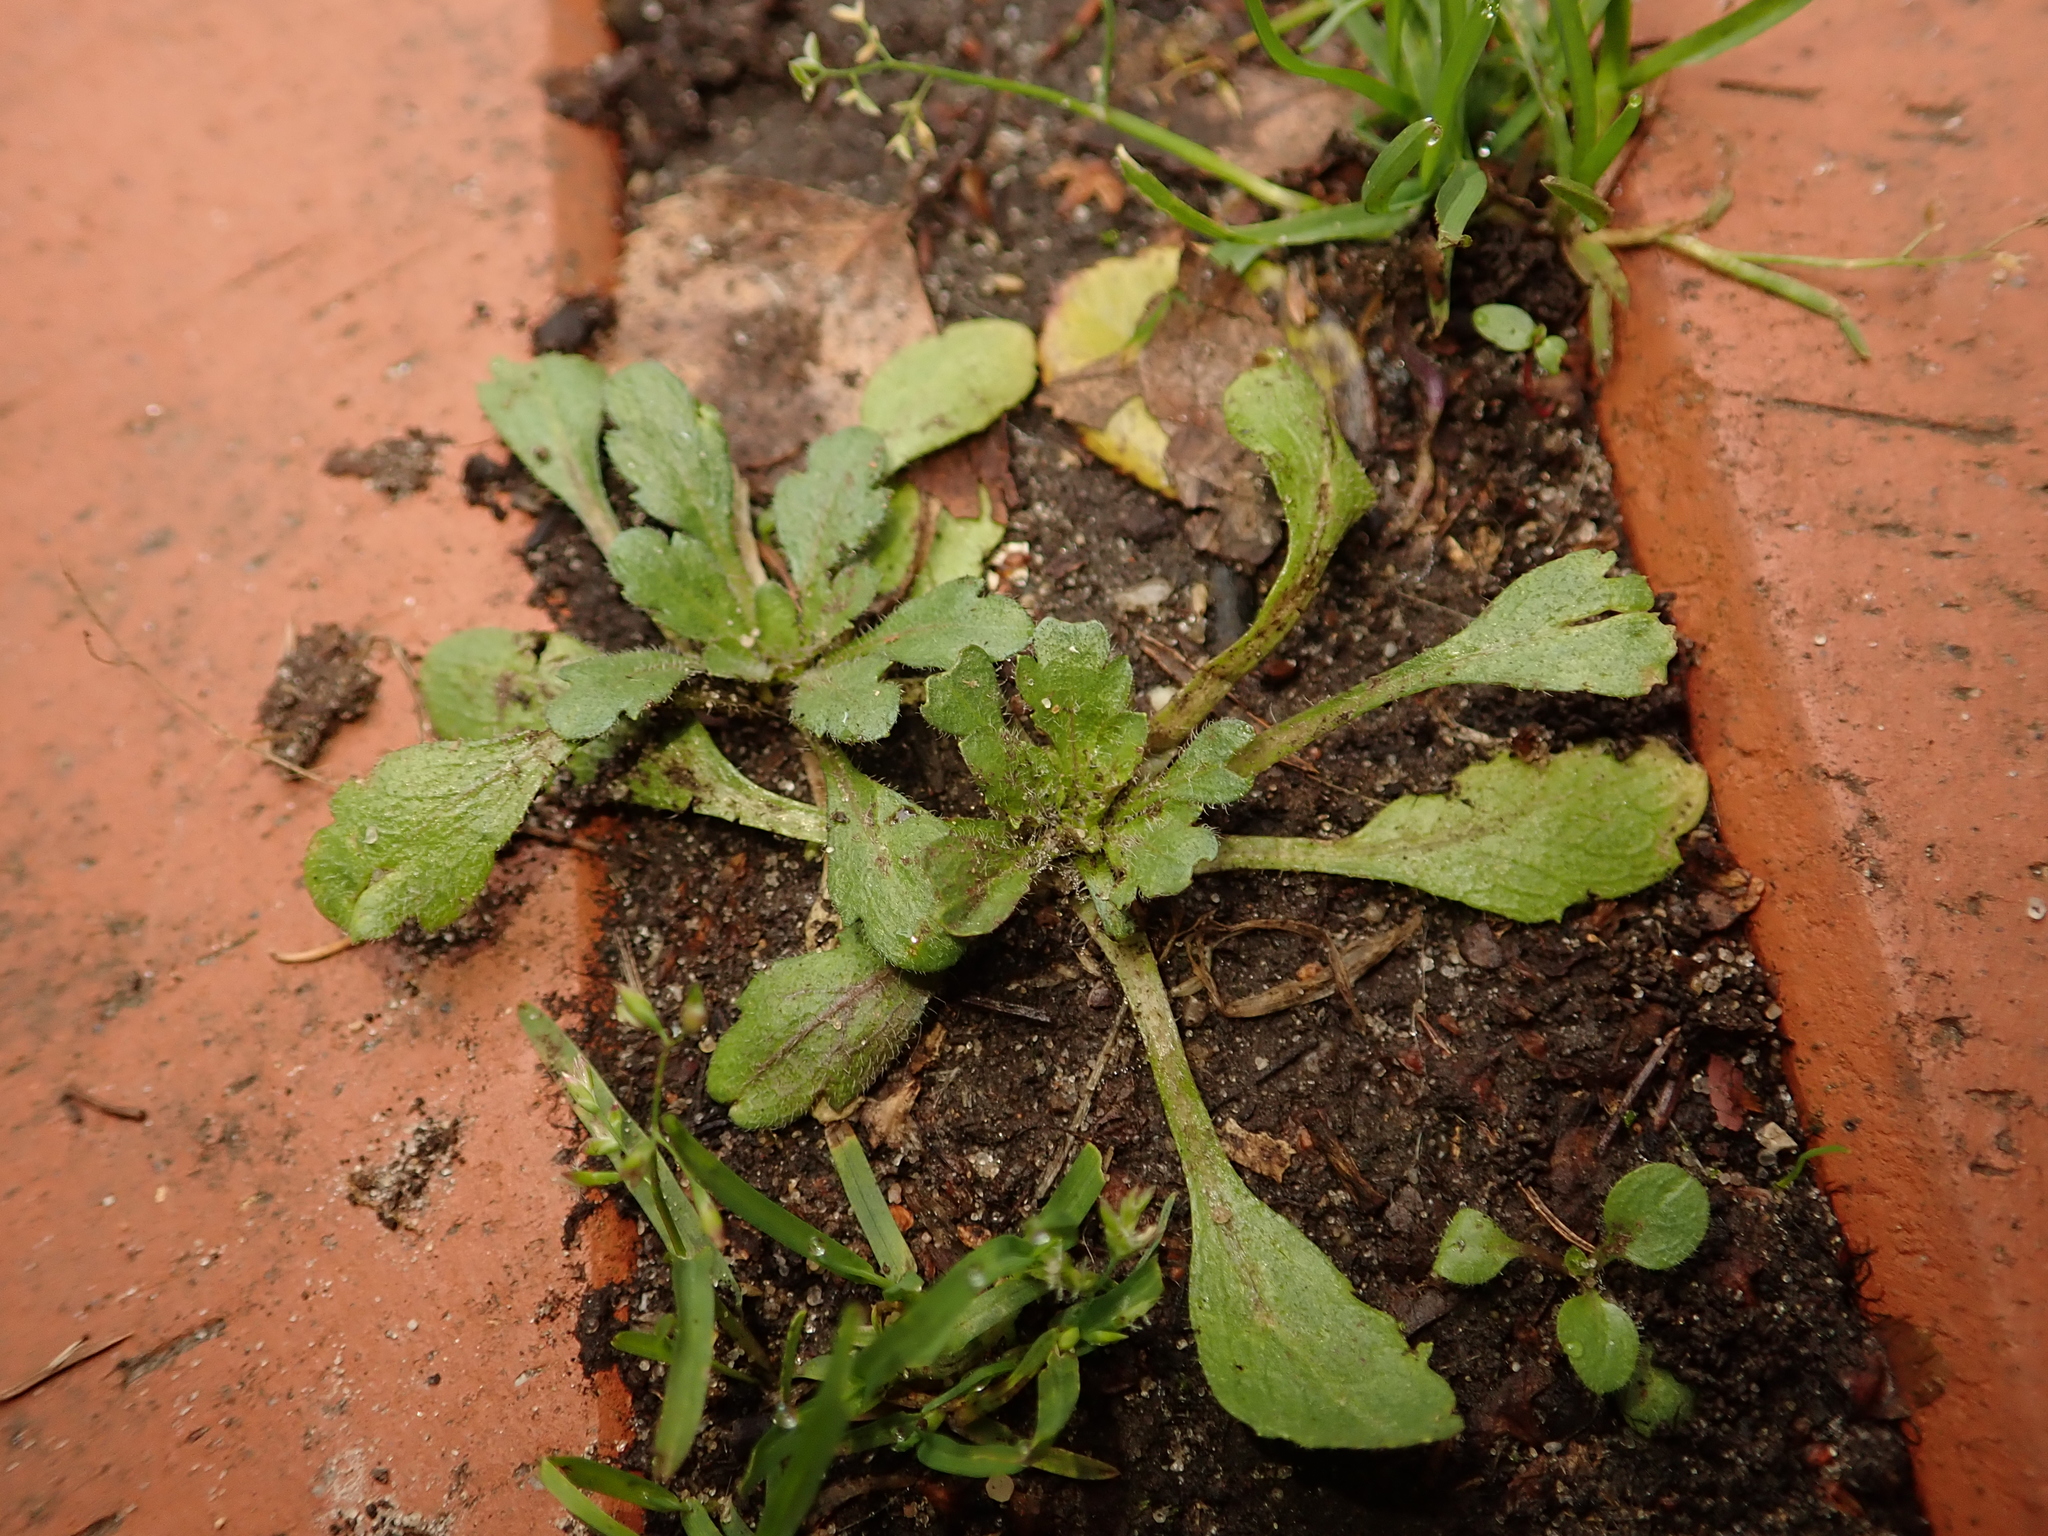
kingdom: Plantae
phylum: Tracheophyta
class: Magnoliopsida
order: Asterales
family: Asteraceae
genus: Erigeron
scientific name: Erigeron canadensis
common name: Canadian fleabane
